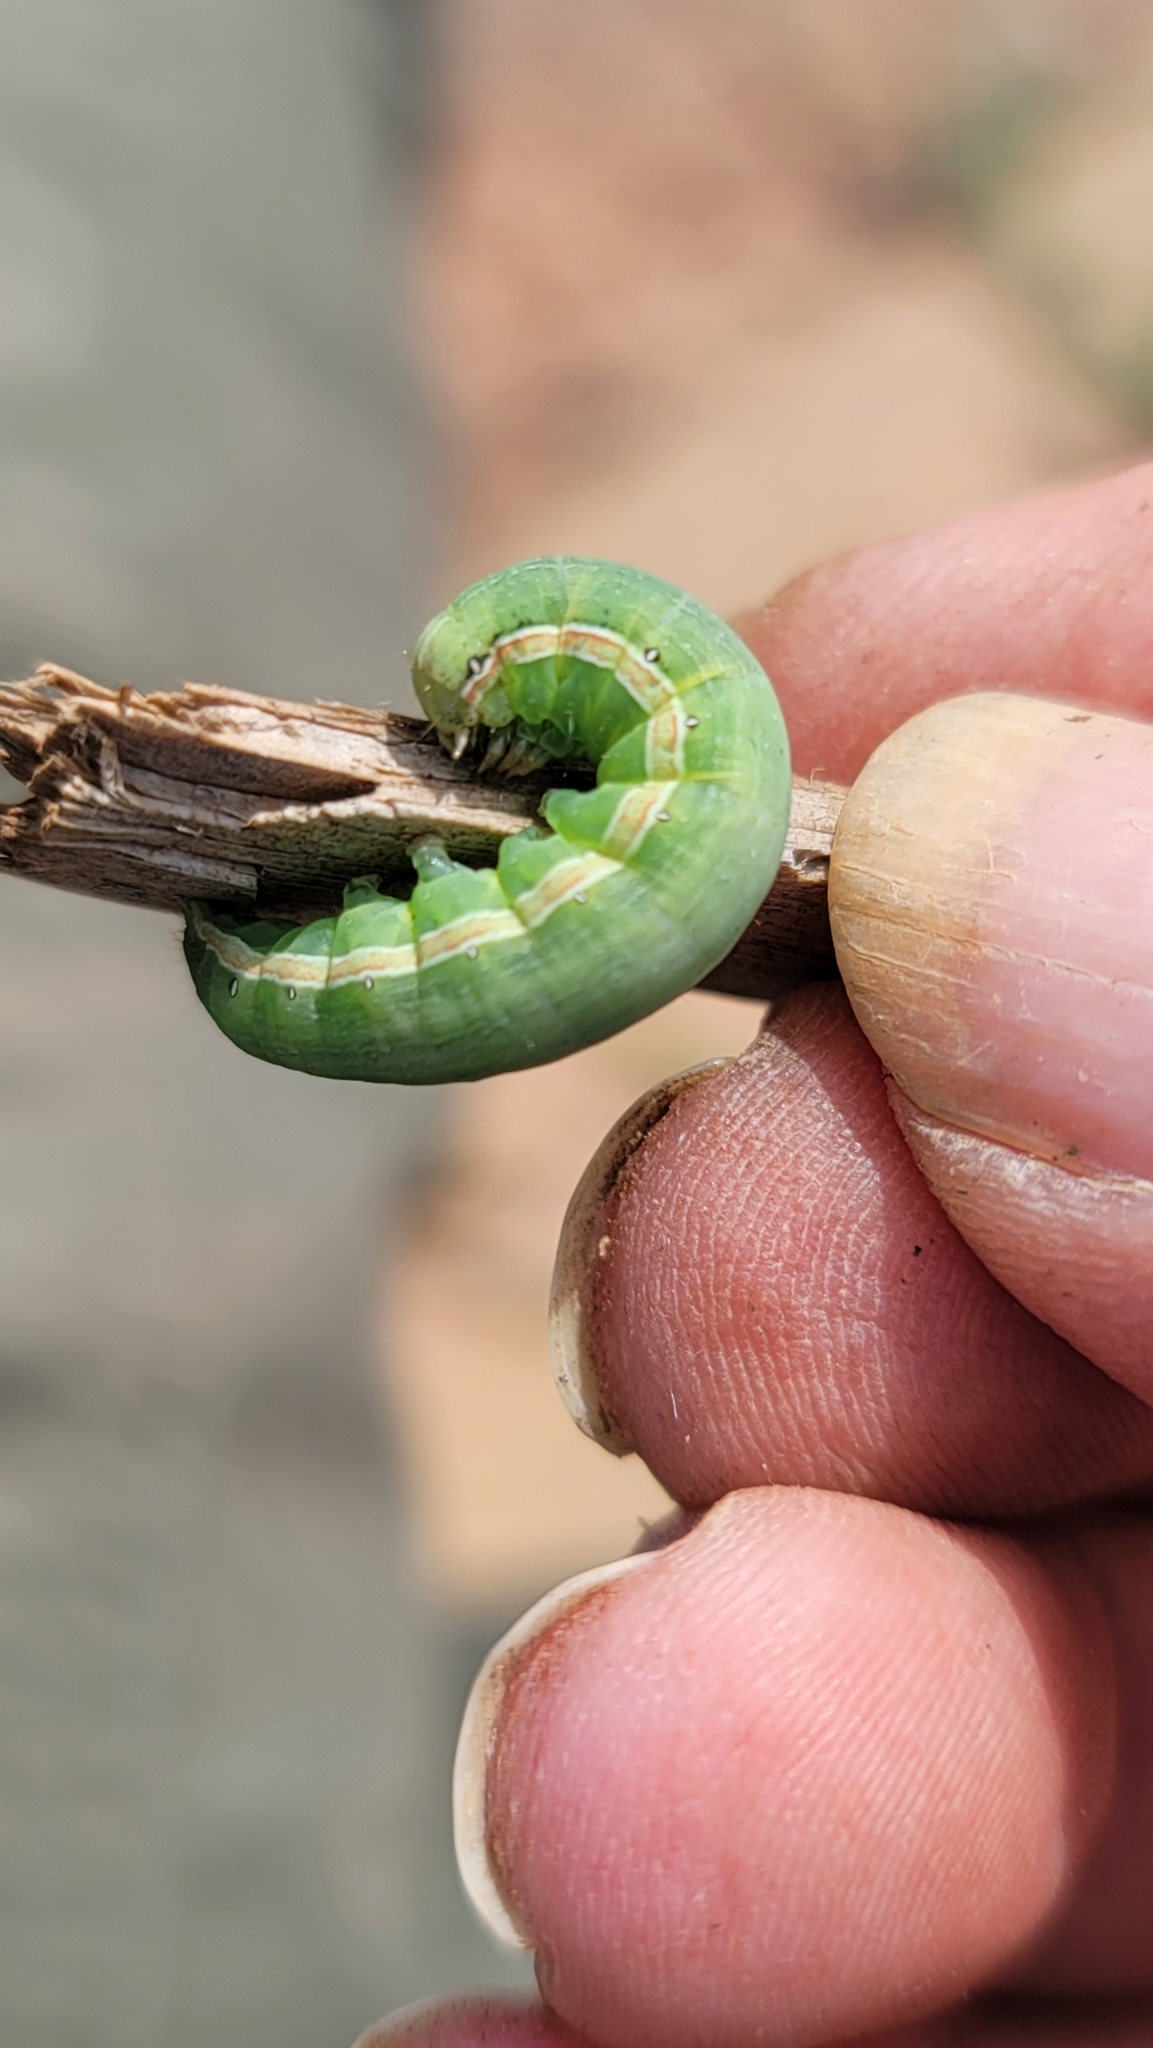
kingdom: Animalia
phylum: Arthropoda
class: Insecta
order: Lepidoptera
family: Noctuidae
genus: Anicla
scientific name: Anicla infecta
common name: Green cutworm
